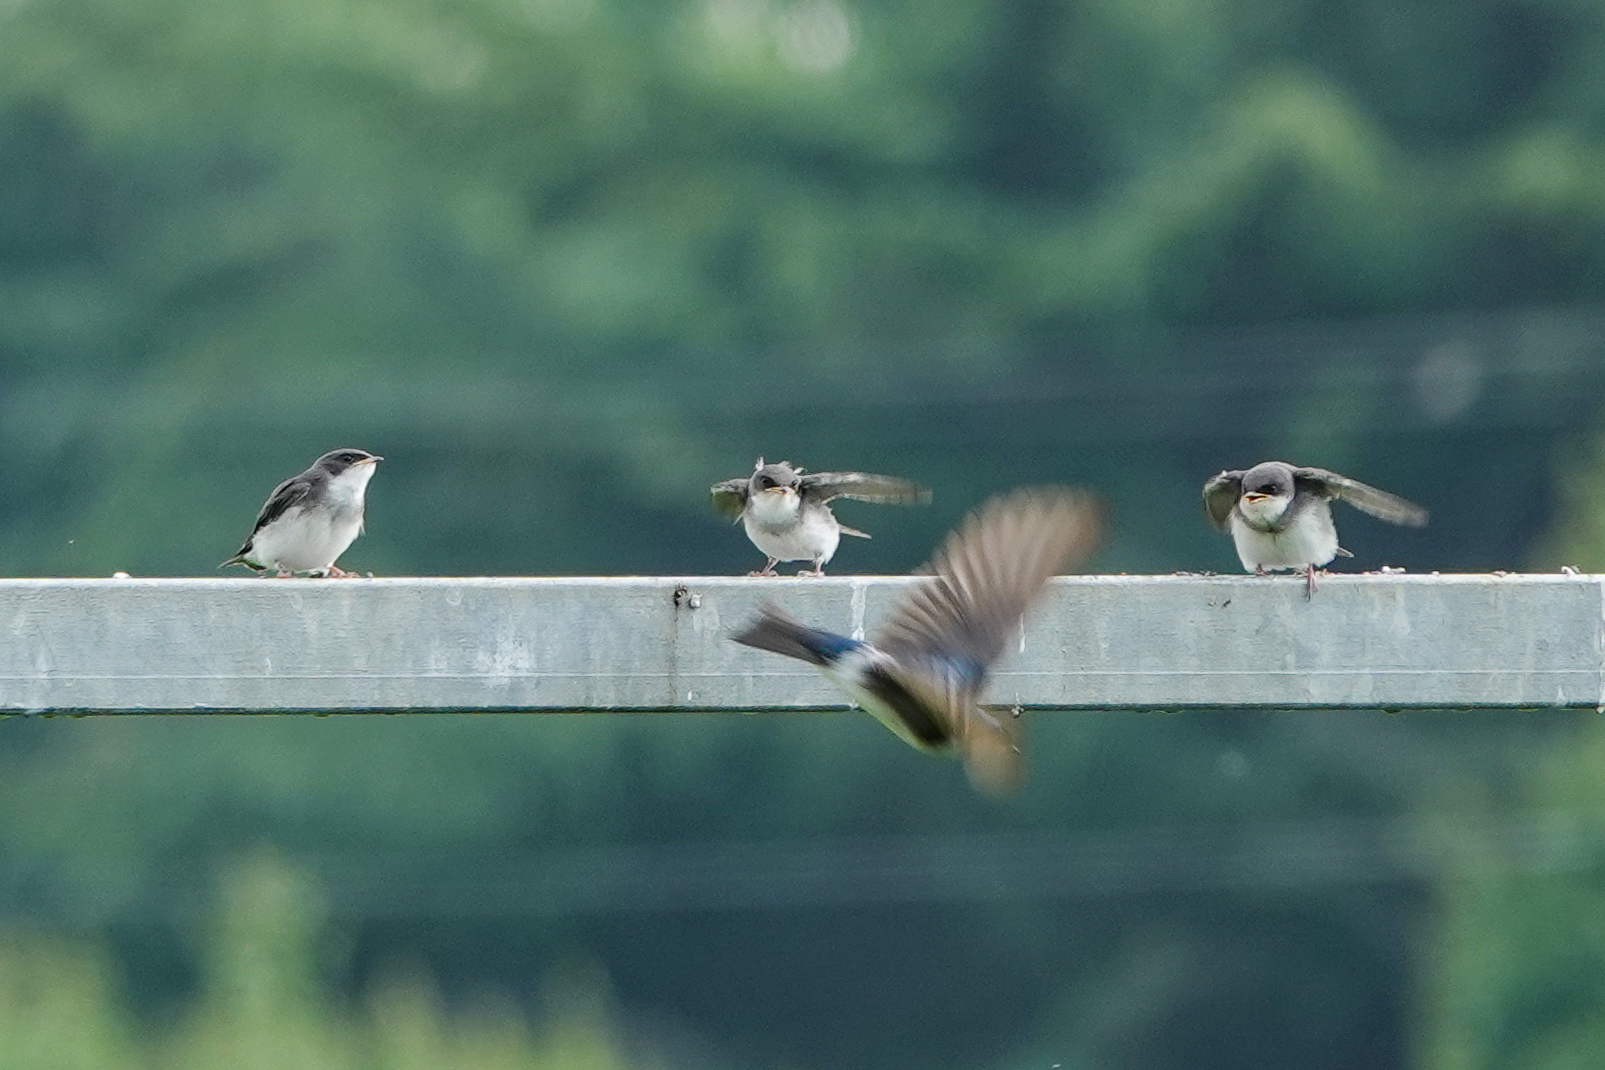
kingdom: Animalia
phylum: Chordata
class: Aves
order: Passeriformes
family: Hirundinidae
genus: Tachycineta
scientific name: Tachycineta bicolor
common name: Tree swallow
